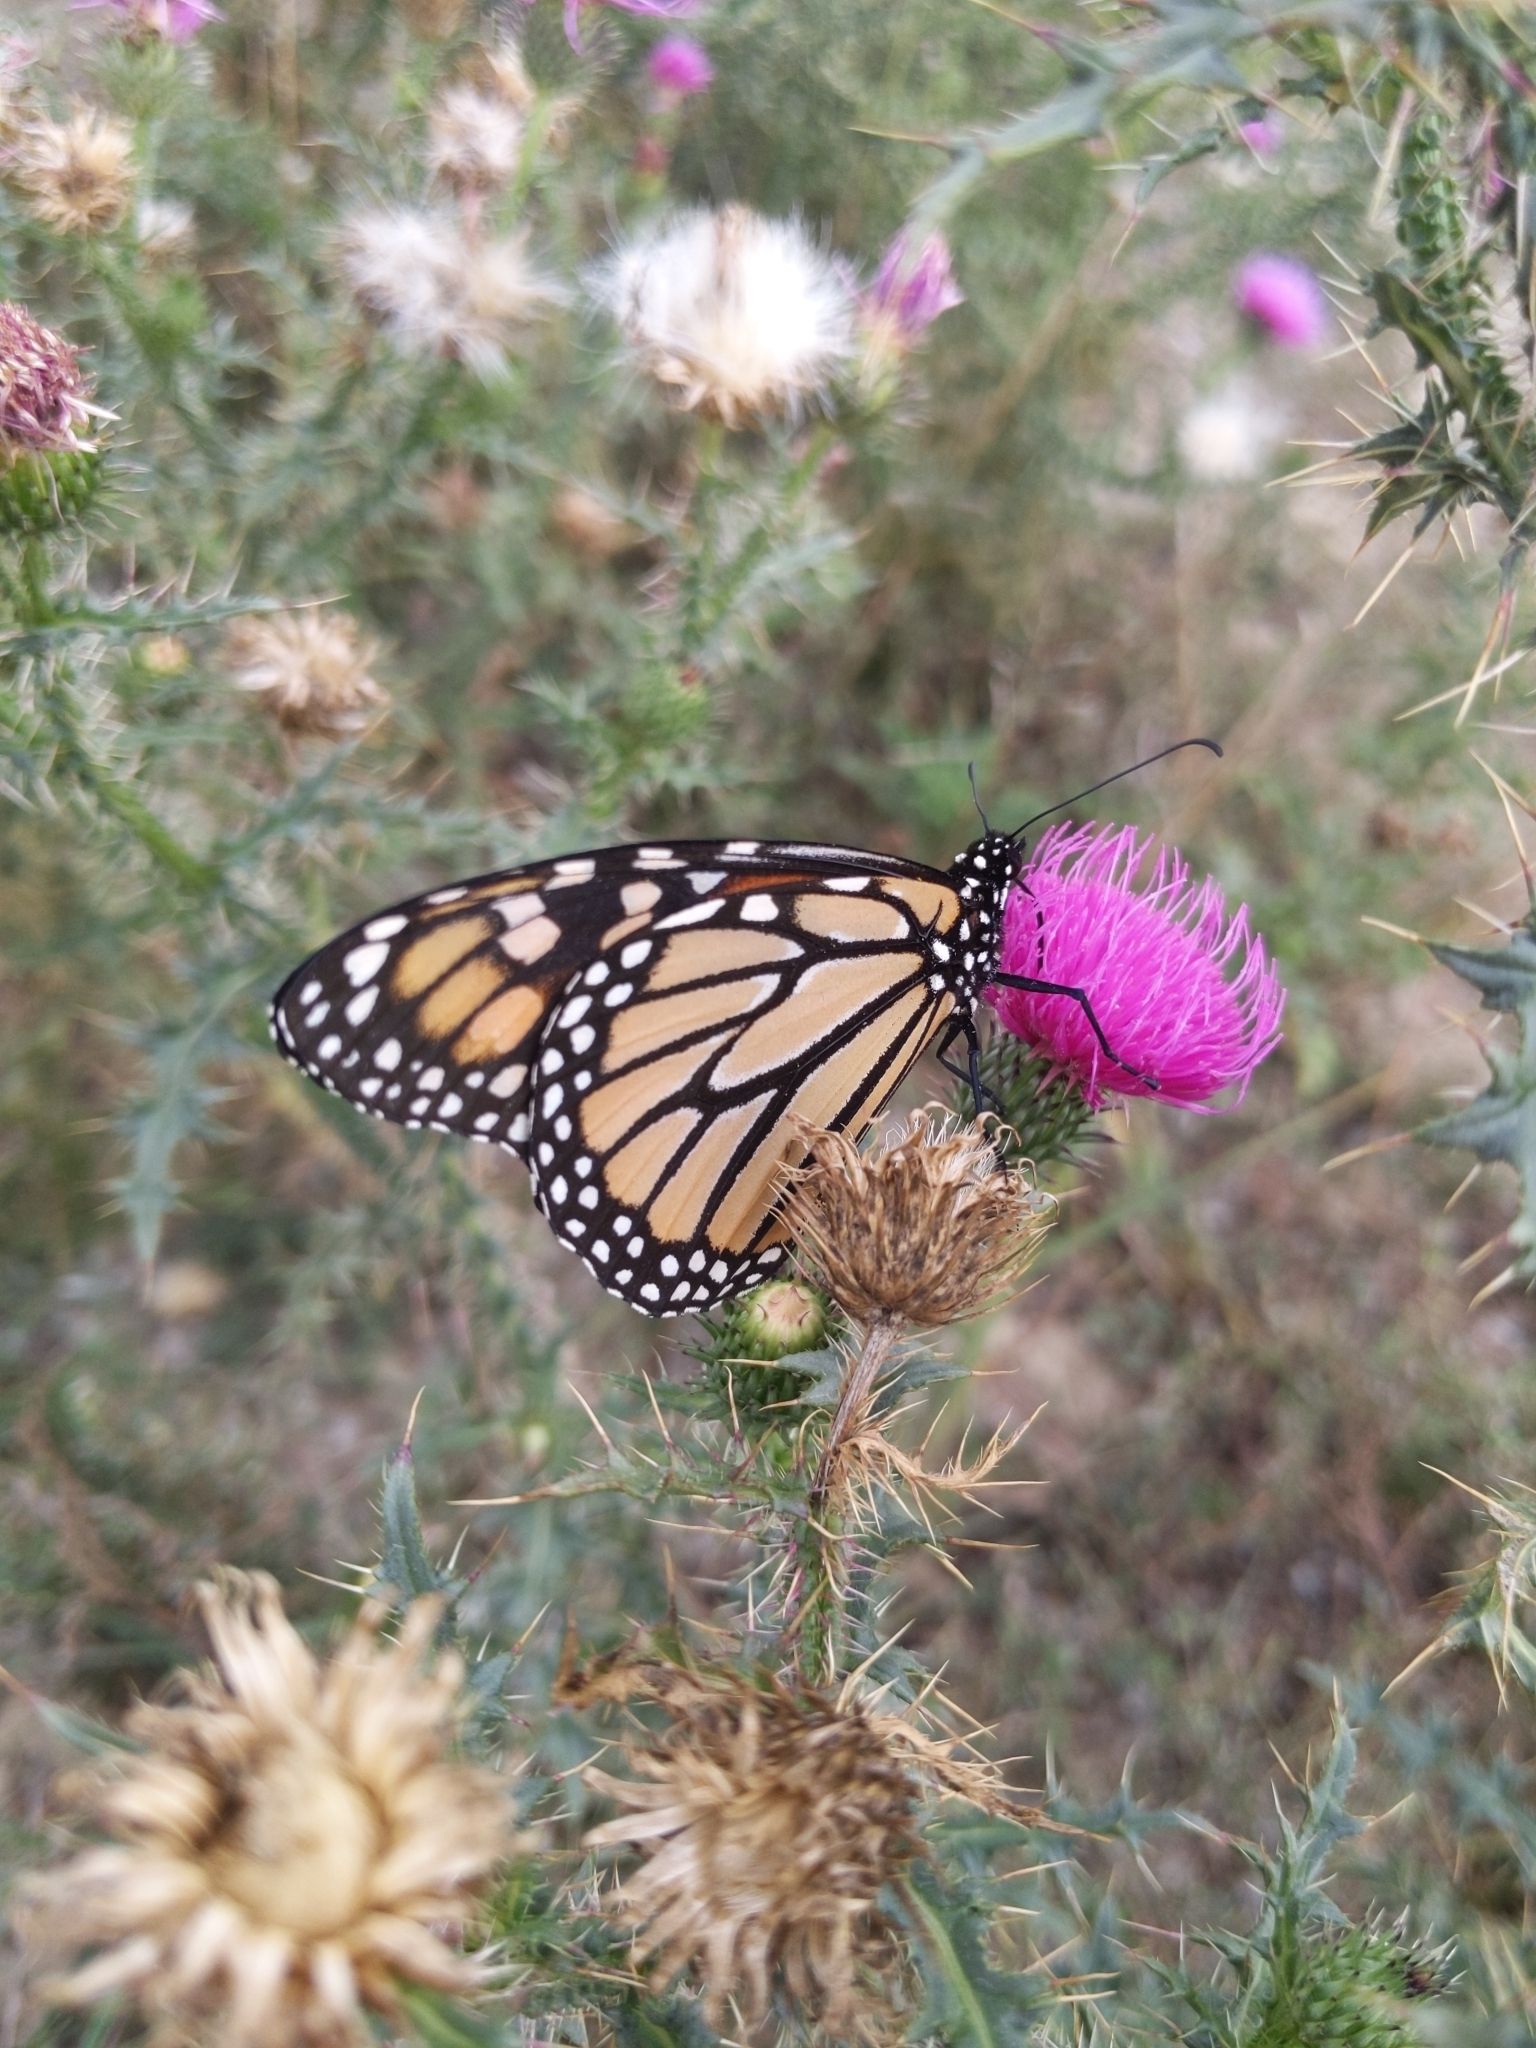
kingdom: Animalia
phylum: Arthropoda
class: Insecta
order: Lepidoptera
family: Nymphalidae
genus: Danaus
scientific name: Danaus plexippus
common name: Monarch
